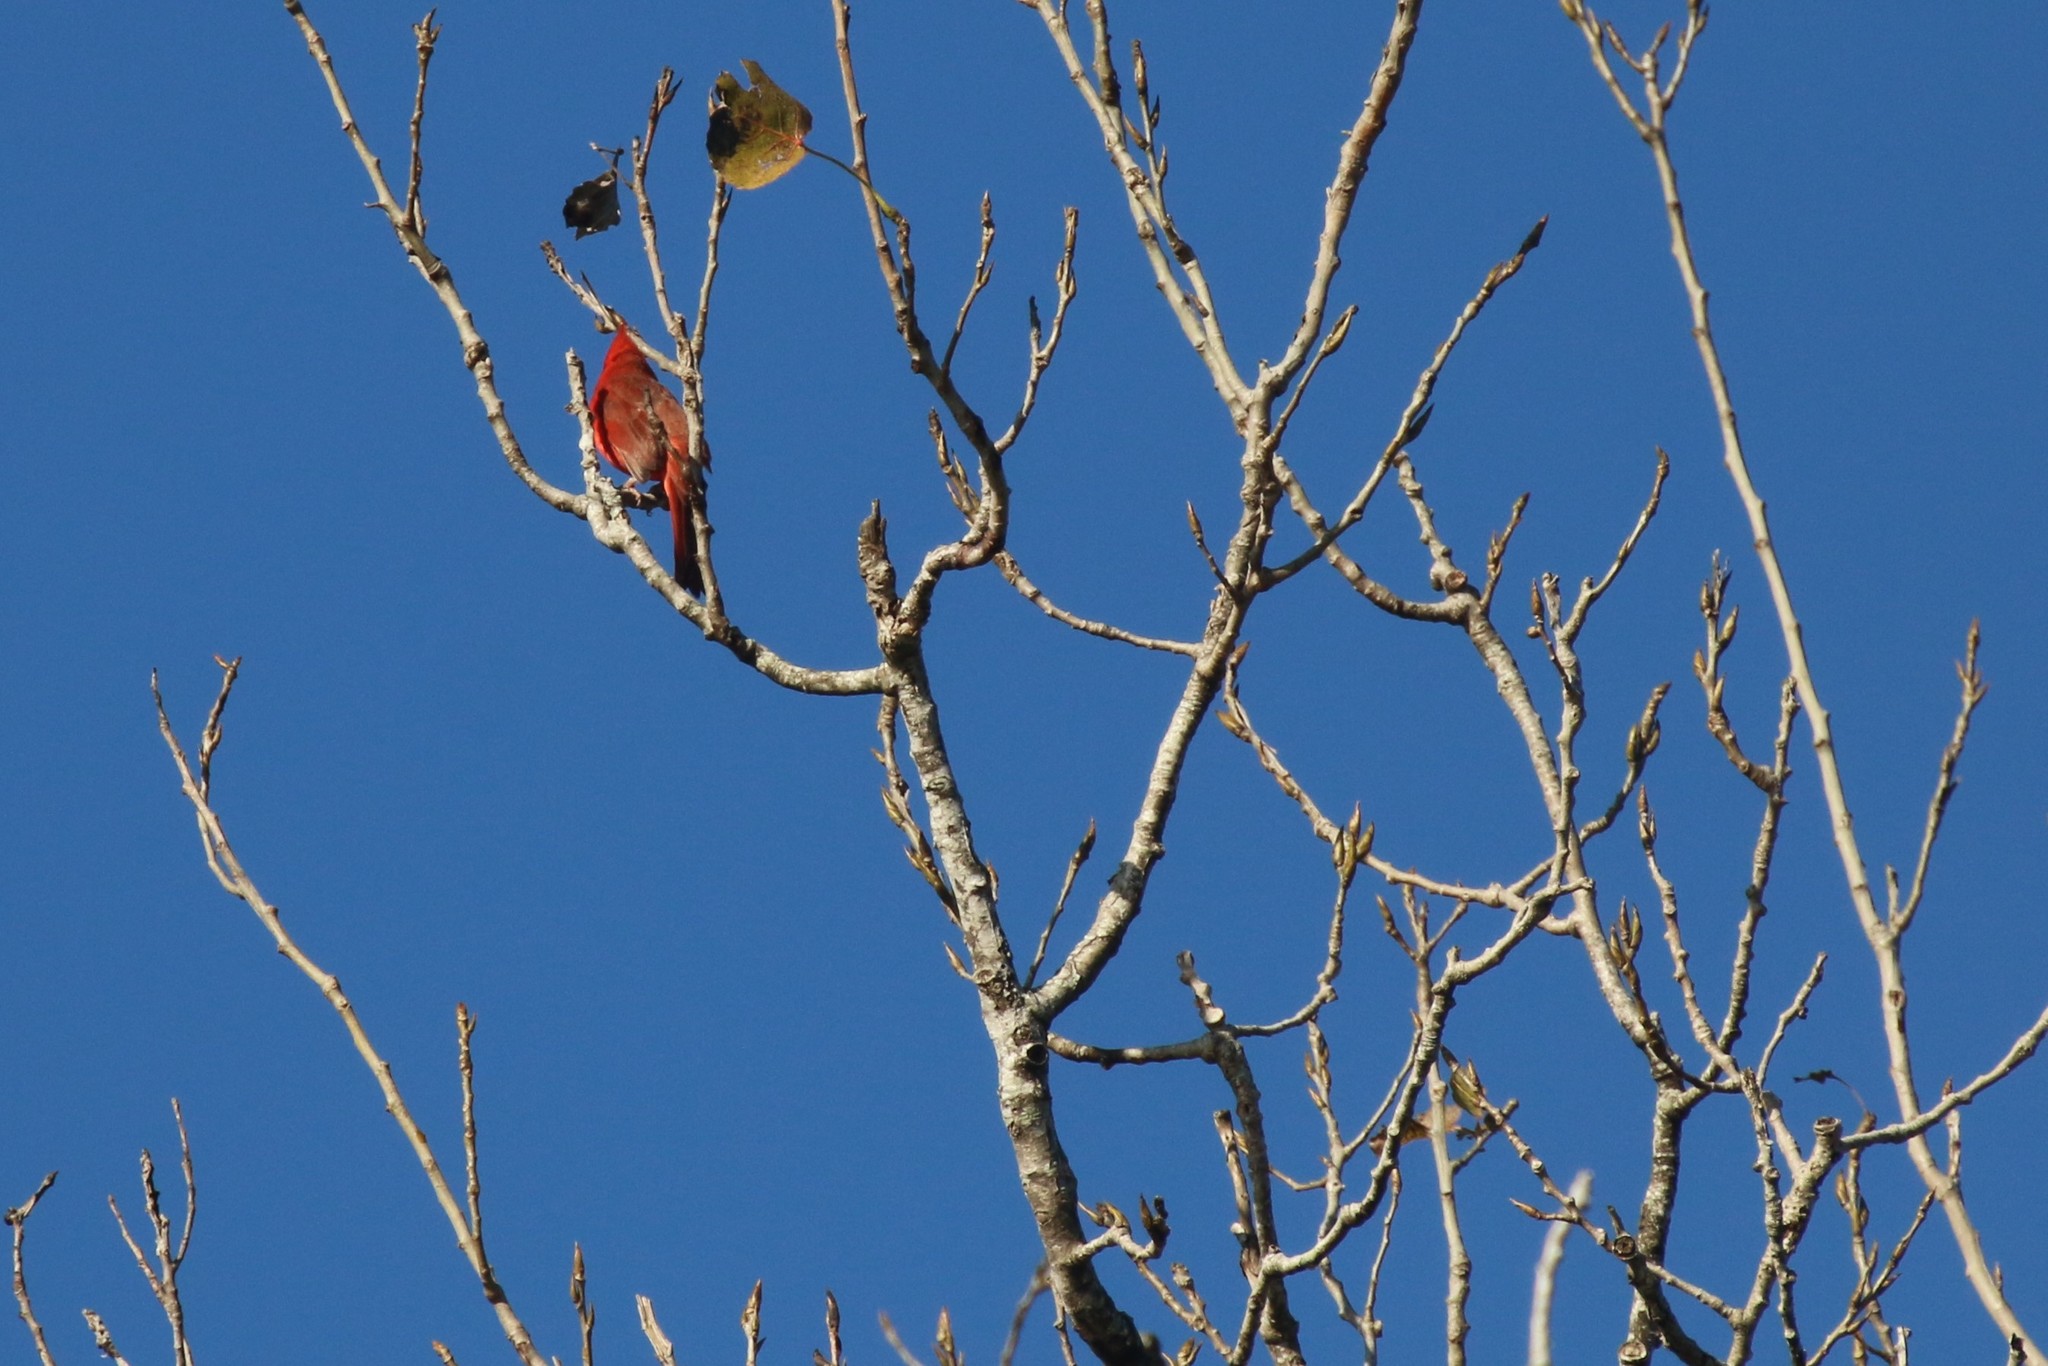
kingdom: Animalia
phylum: Chordata
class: Aves
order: Passeriformes
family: Cardinalidae
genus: Cardinalis
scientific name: Cardinalis cardinalis
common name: Northern cardinal
